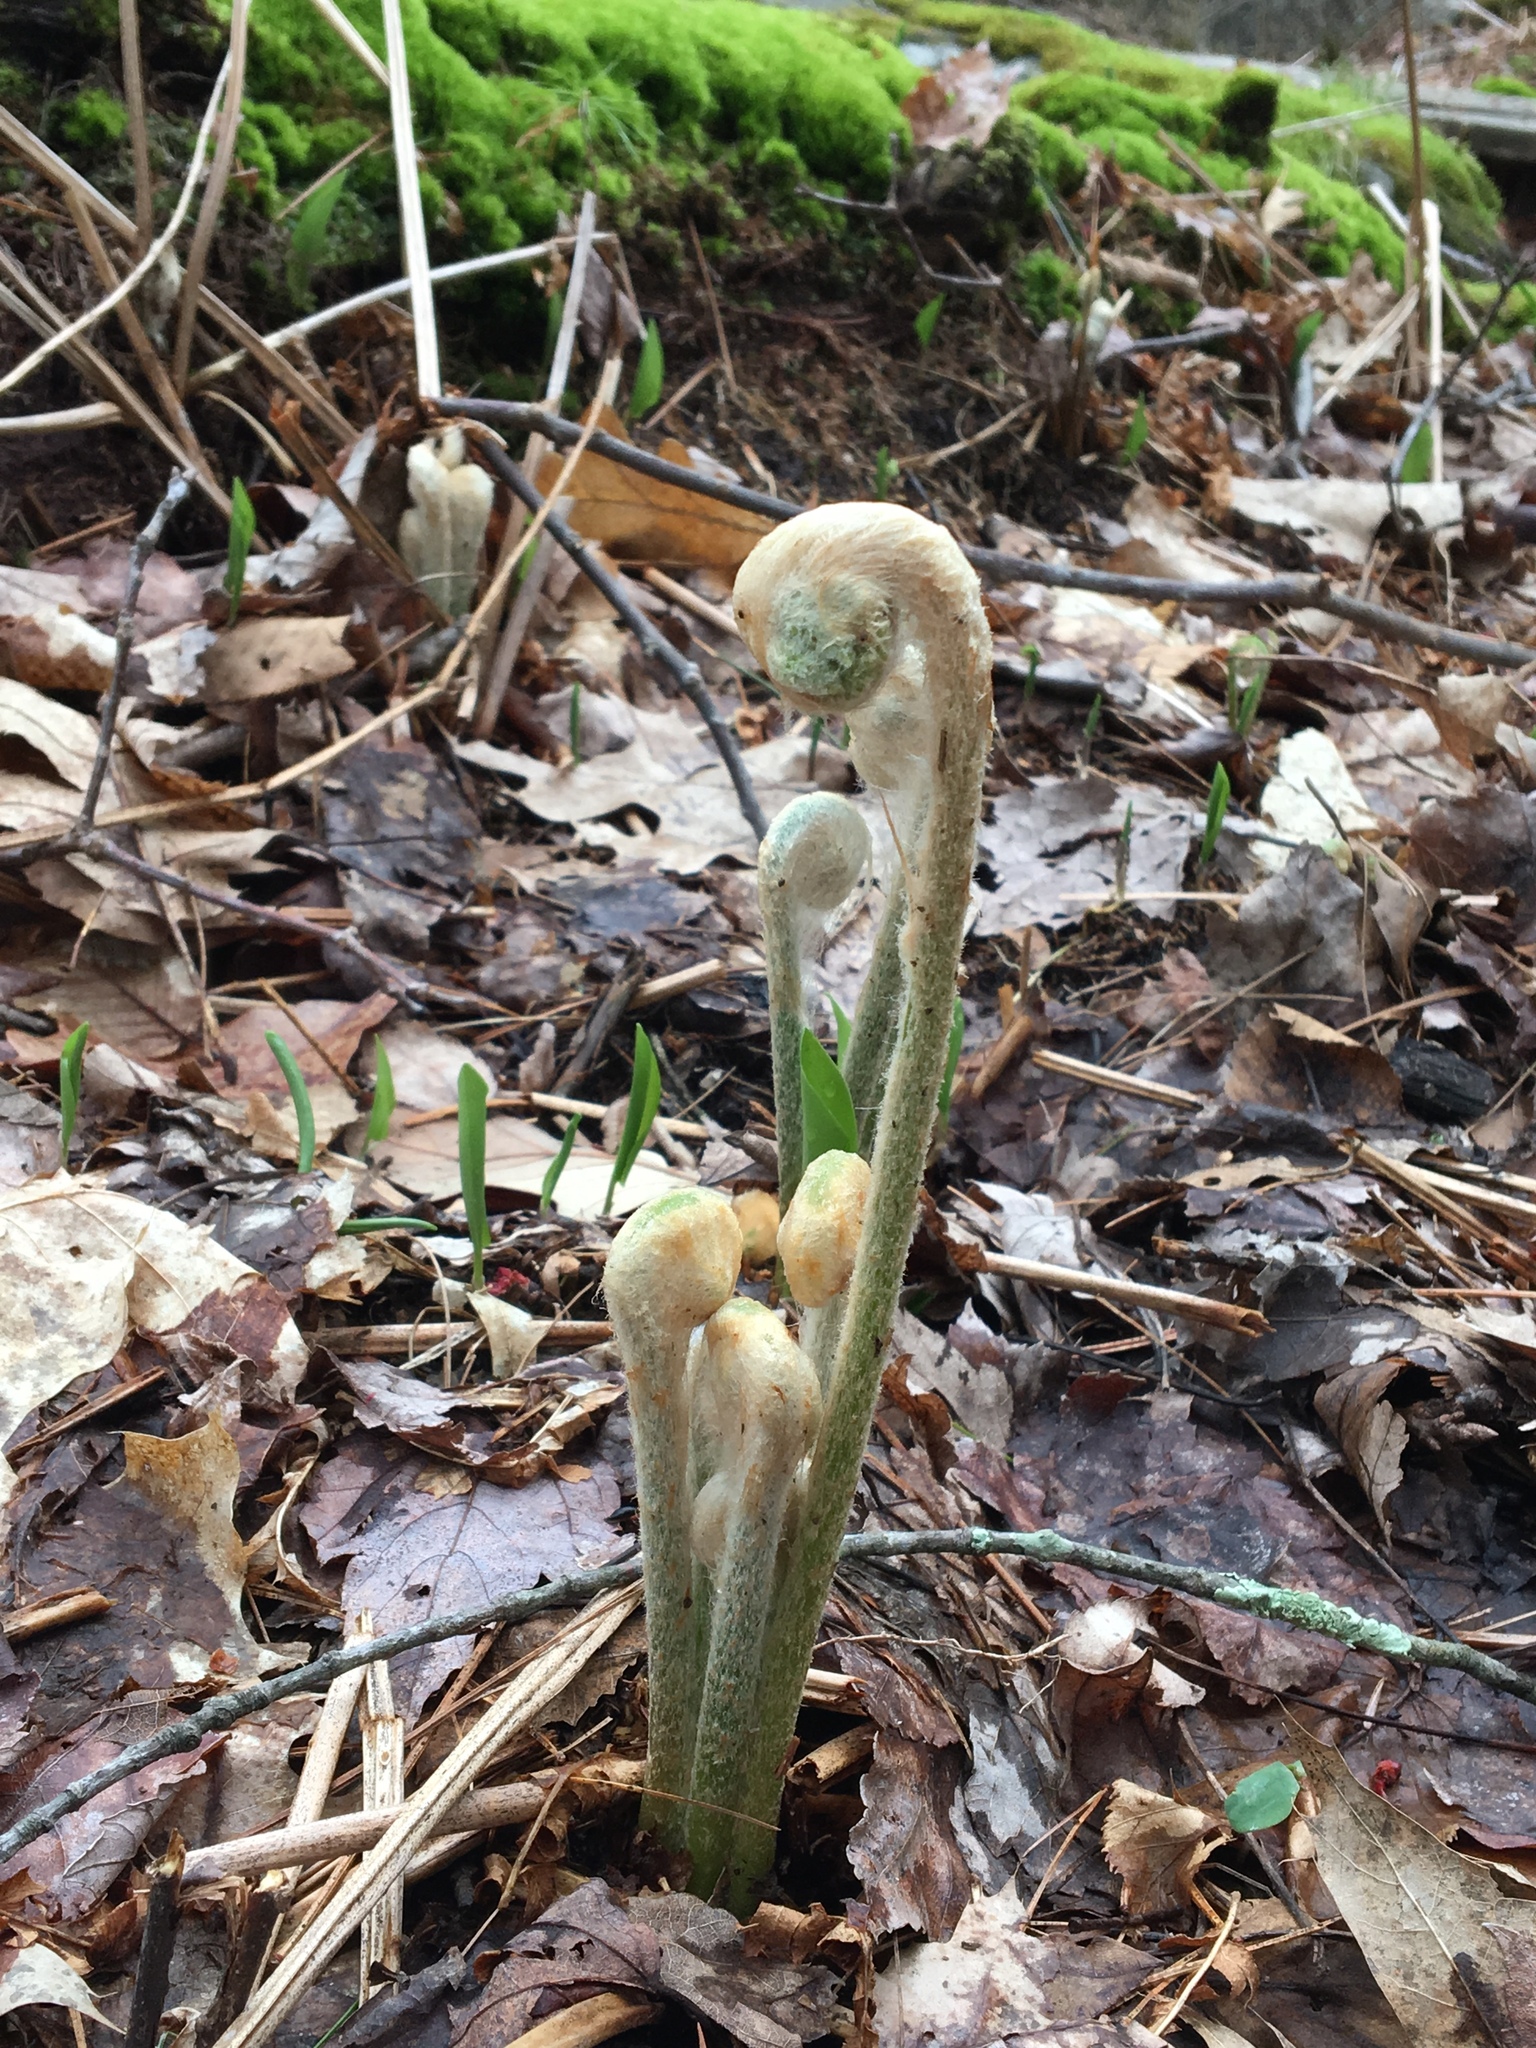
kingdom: Plantae
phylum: Tracheophyta
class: Polypodiopsida
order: Osmundales
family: Osmundaceae
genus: Osmundastrum
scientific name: Osmundastrum cinnamomeum
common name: Cinnamon fern
